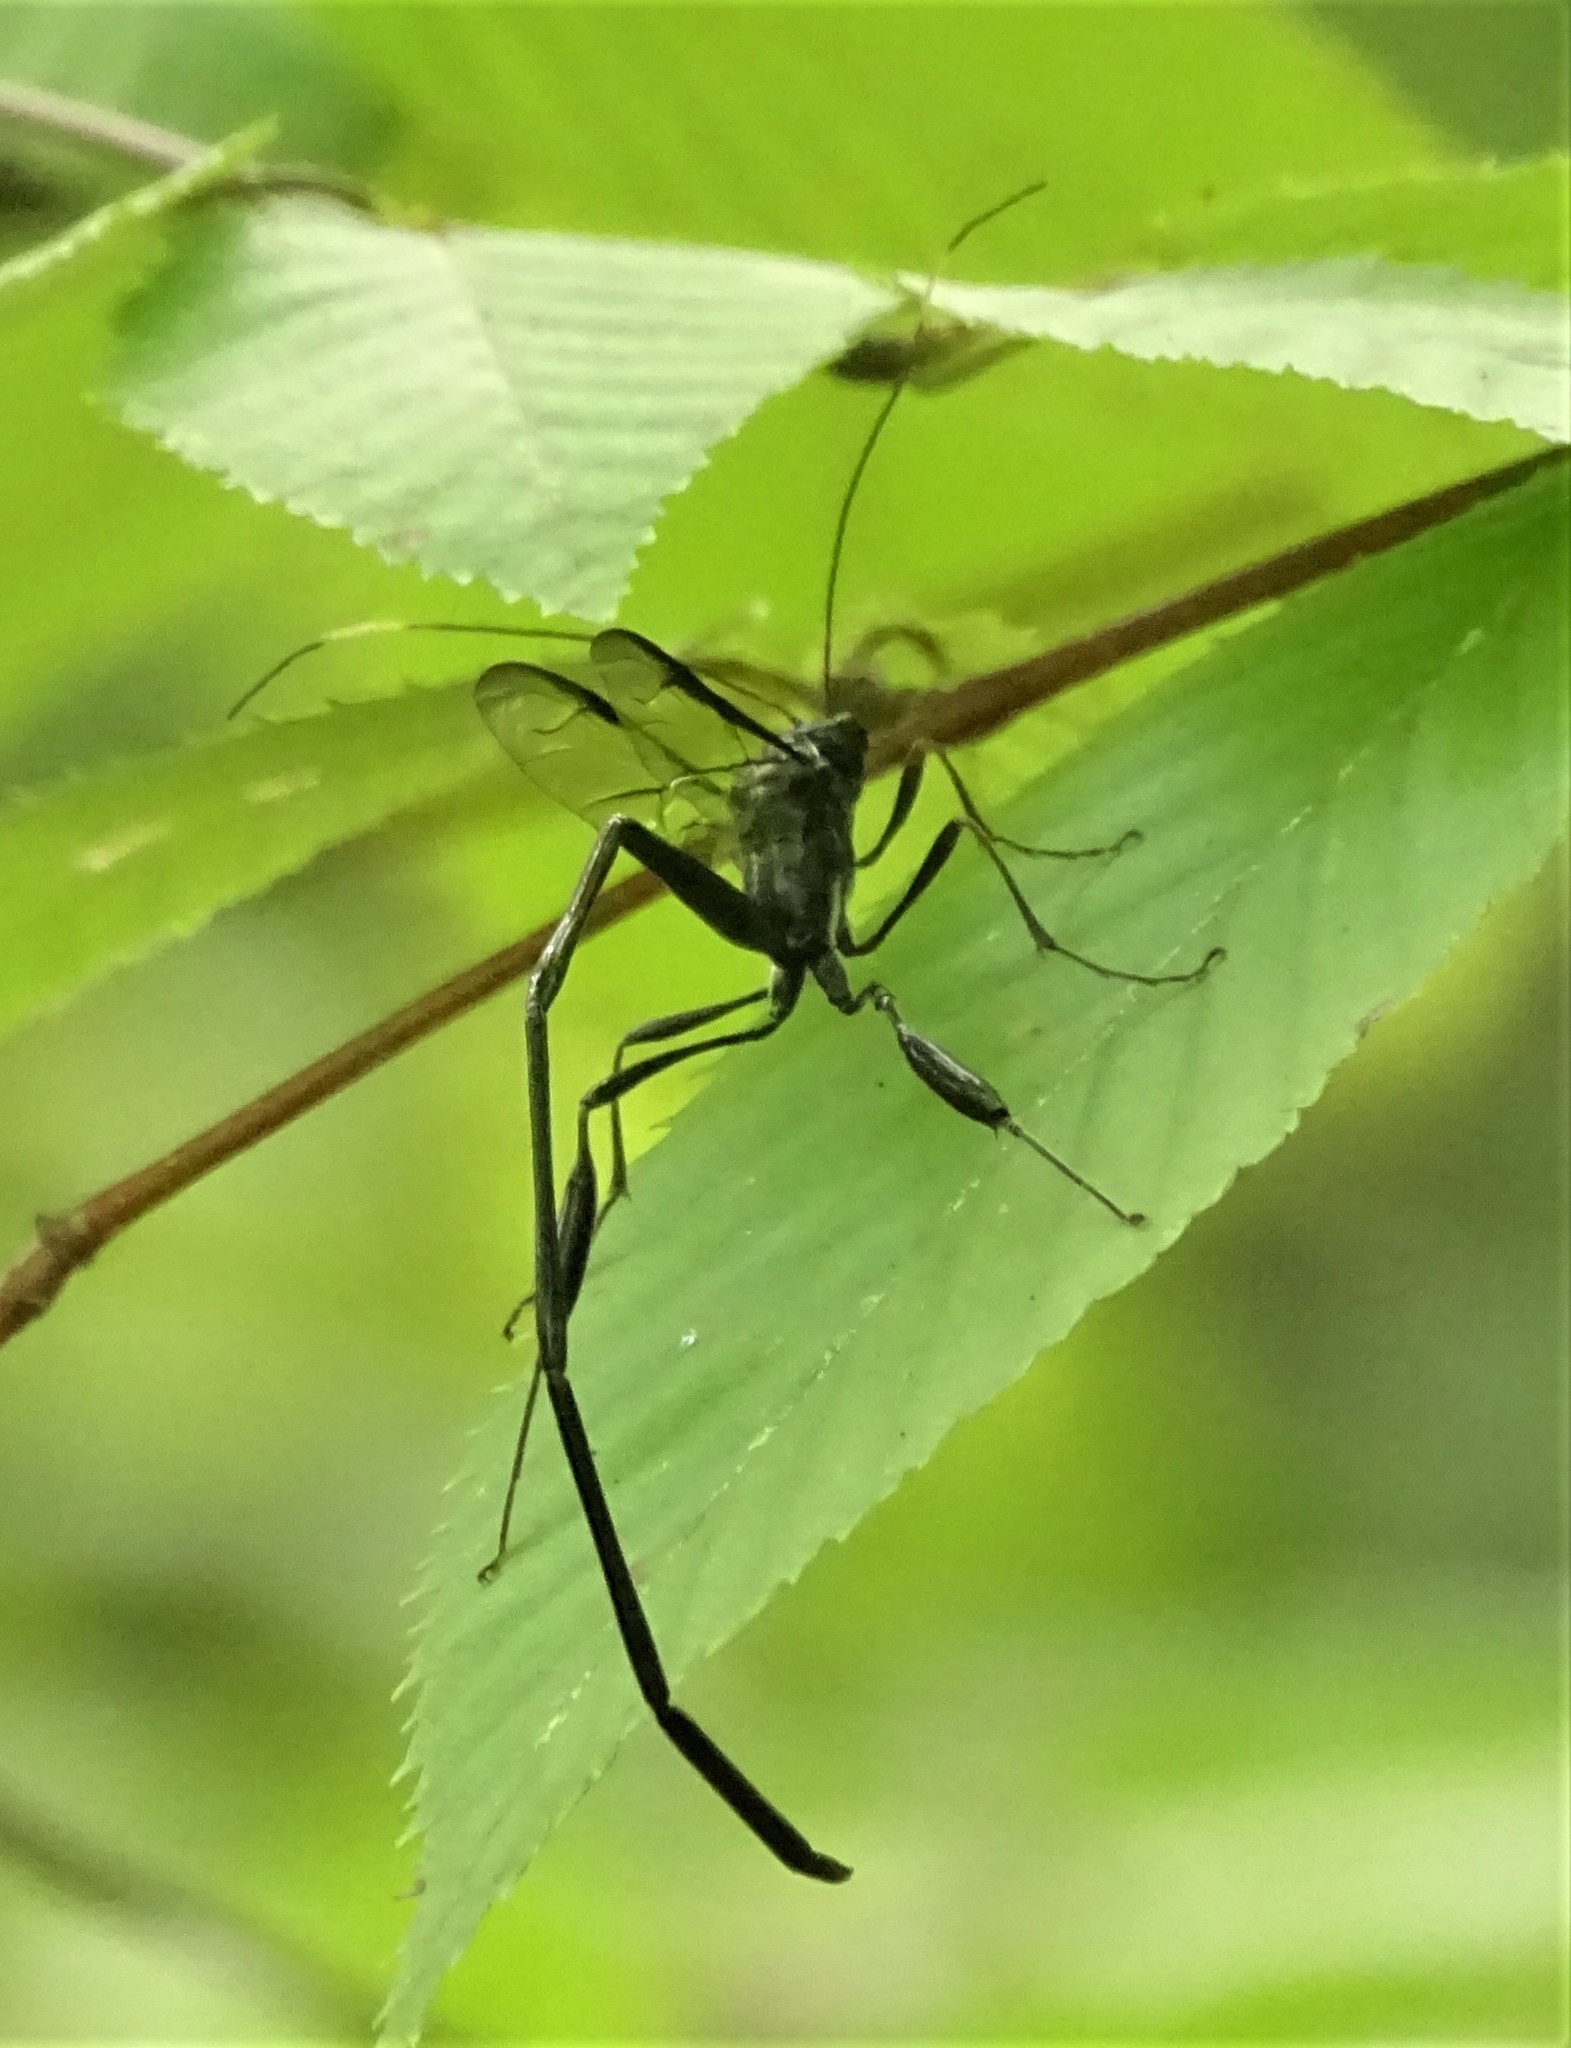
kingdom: Animalia
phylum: Arthropoda
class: Insecta
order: Hymenoptera
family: Pelecinidae
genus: Pelecinus
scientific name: Pelecinus polyturator
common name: American pelecinid wasp
